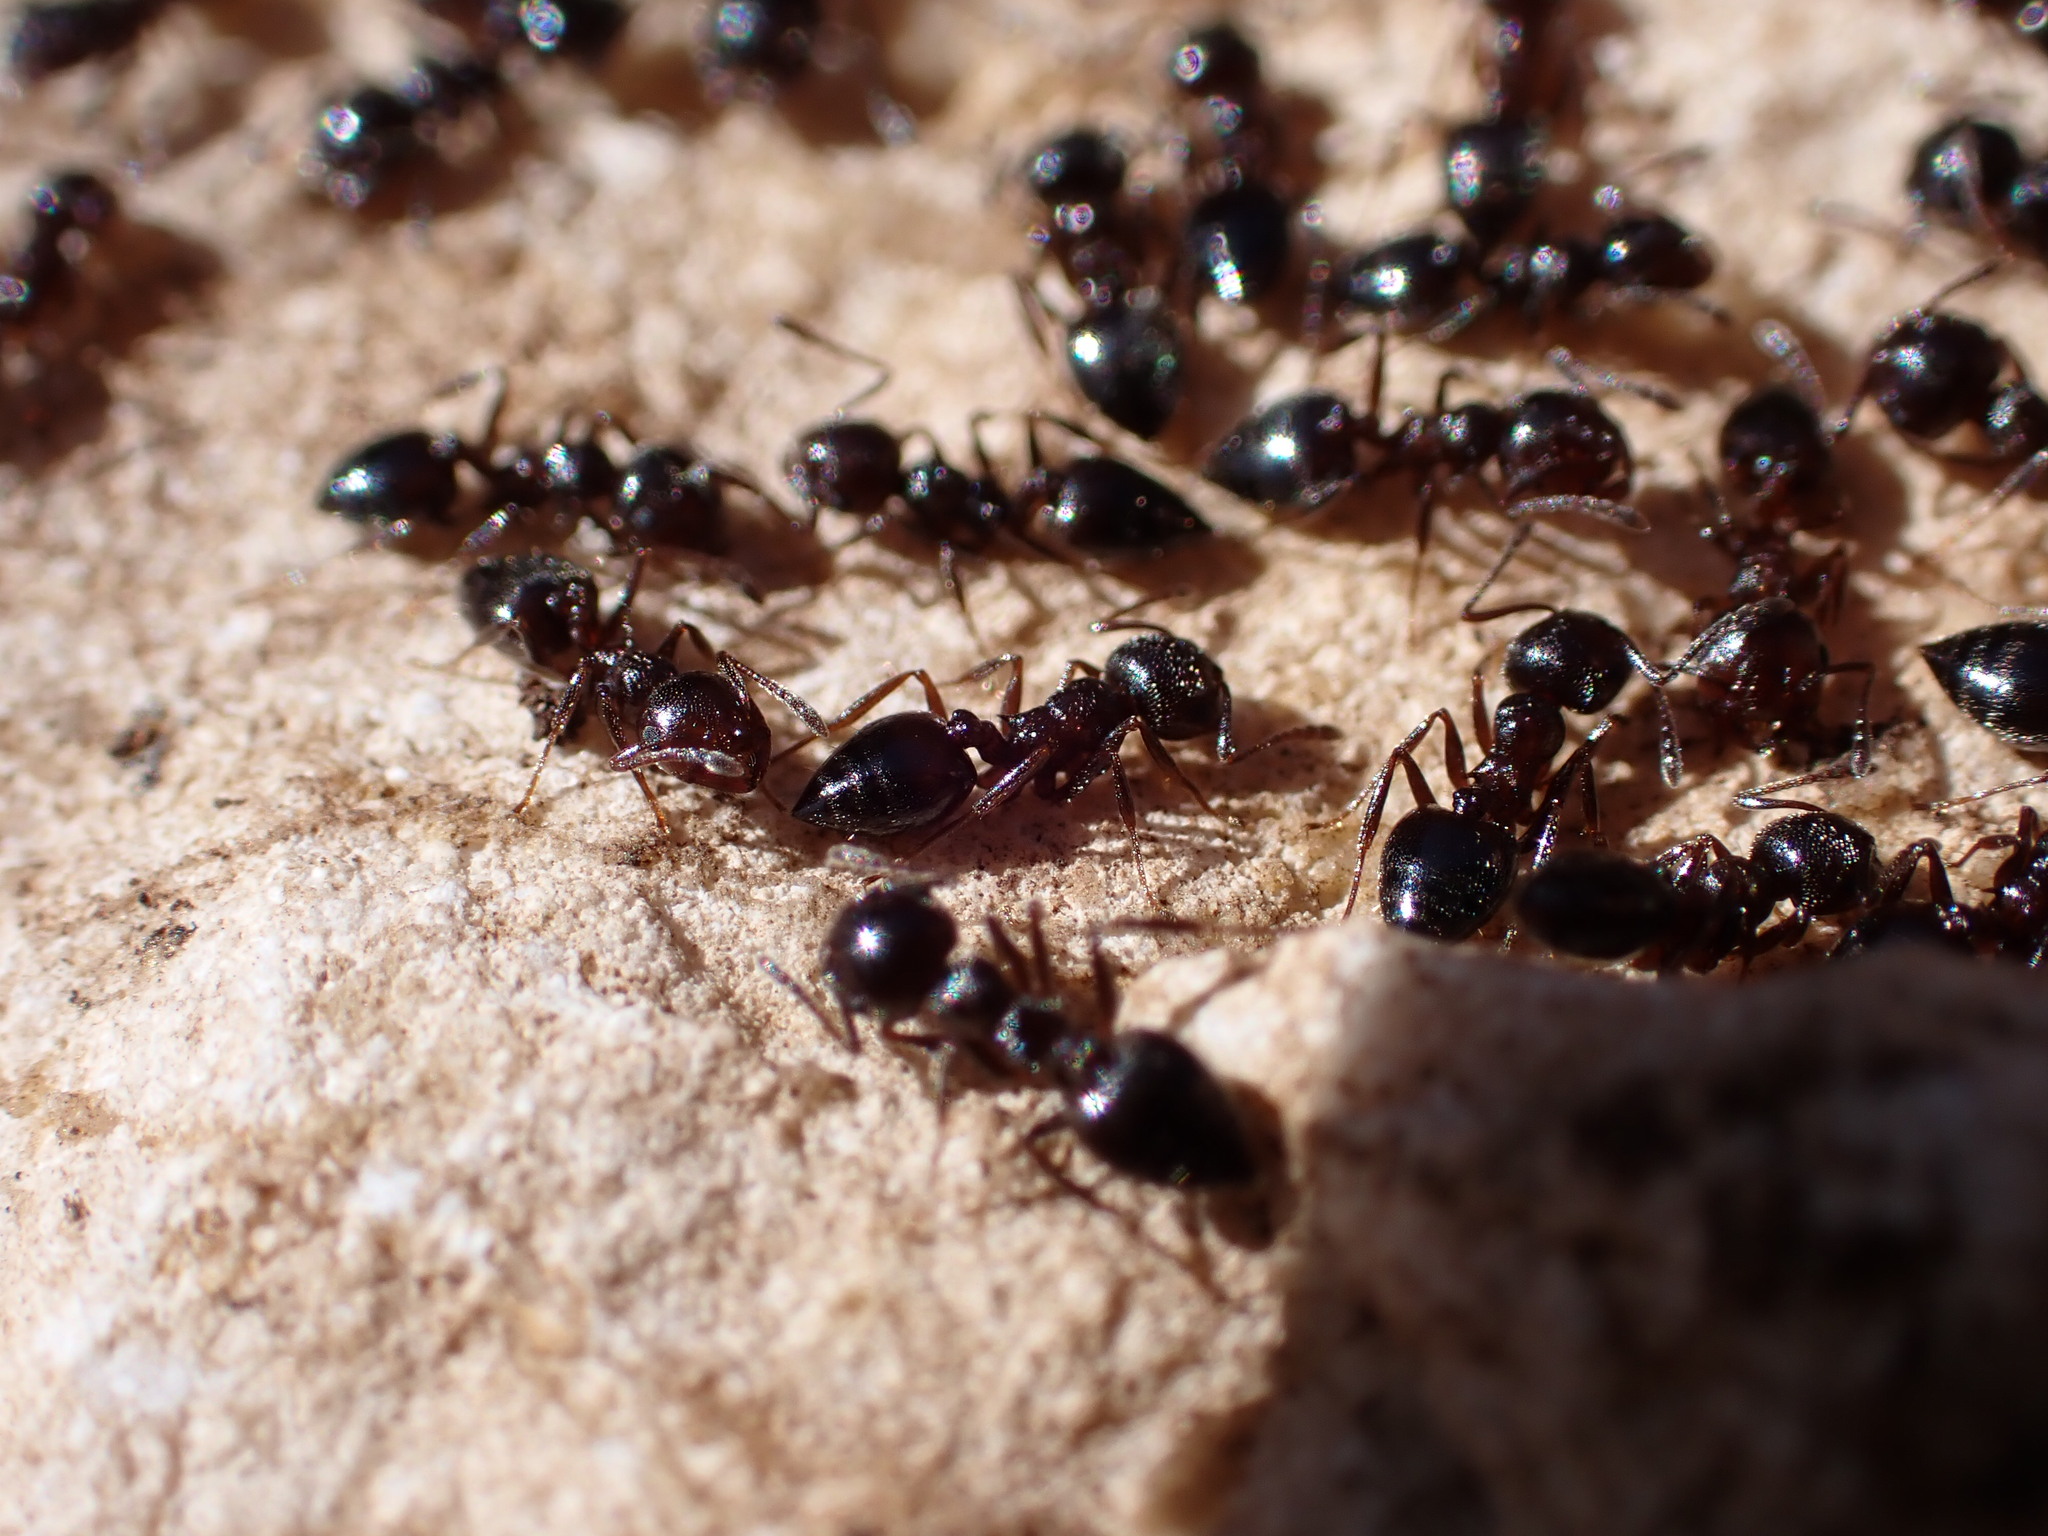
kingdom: Animalia
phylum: Arthropoda
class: Insecta
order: Hymenoptera
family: Formicidae
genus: Crematogaster
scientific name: Crematogaster auberti
